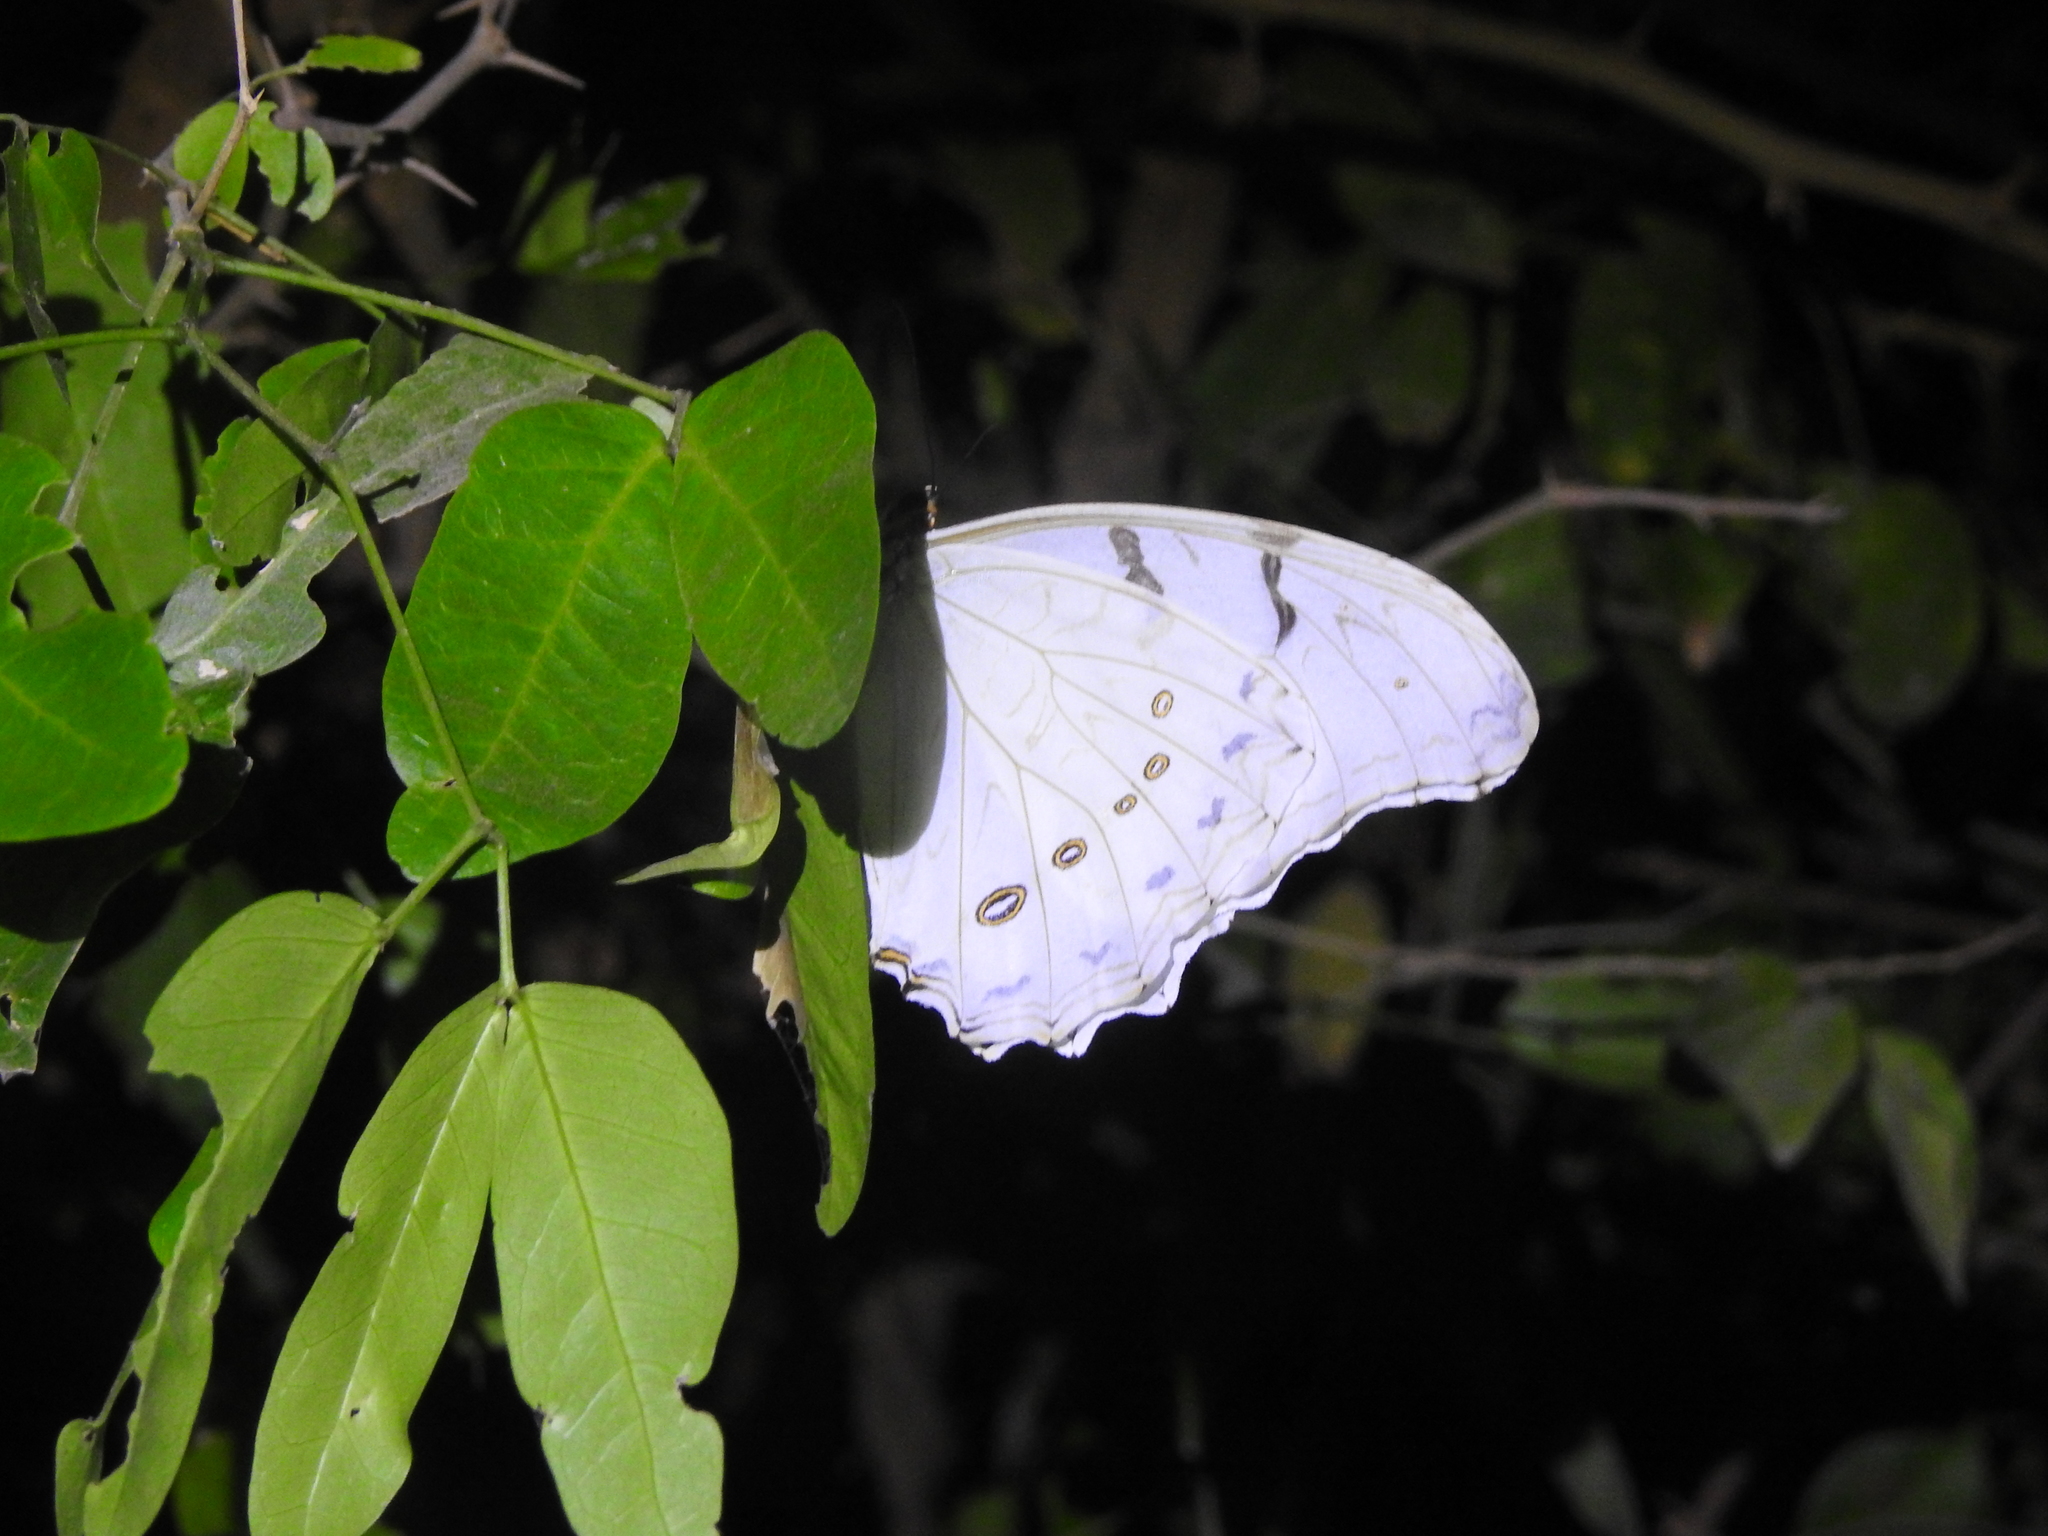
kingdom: Animalia
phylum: Arthropoda
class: Insecta
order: Lepidoptera
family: Nymphalidae
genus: Morpho
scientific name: Morpho polyphemus
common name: White morpho
